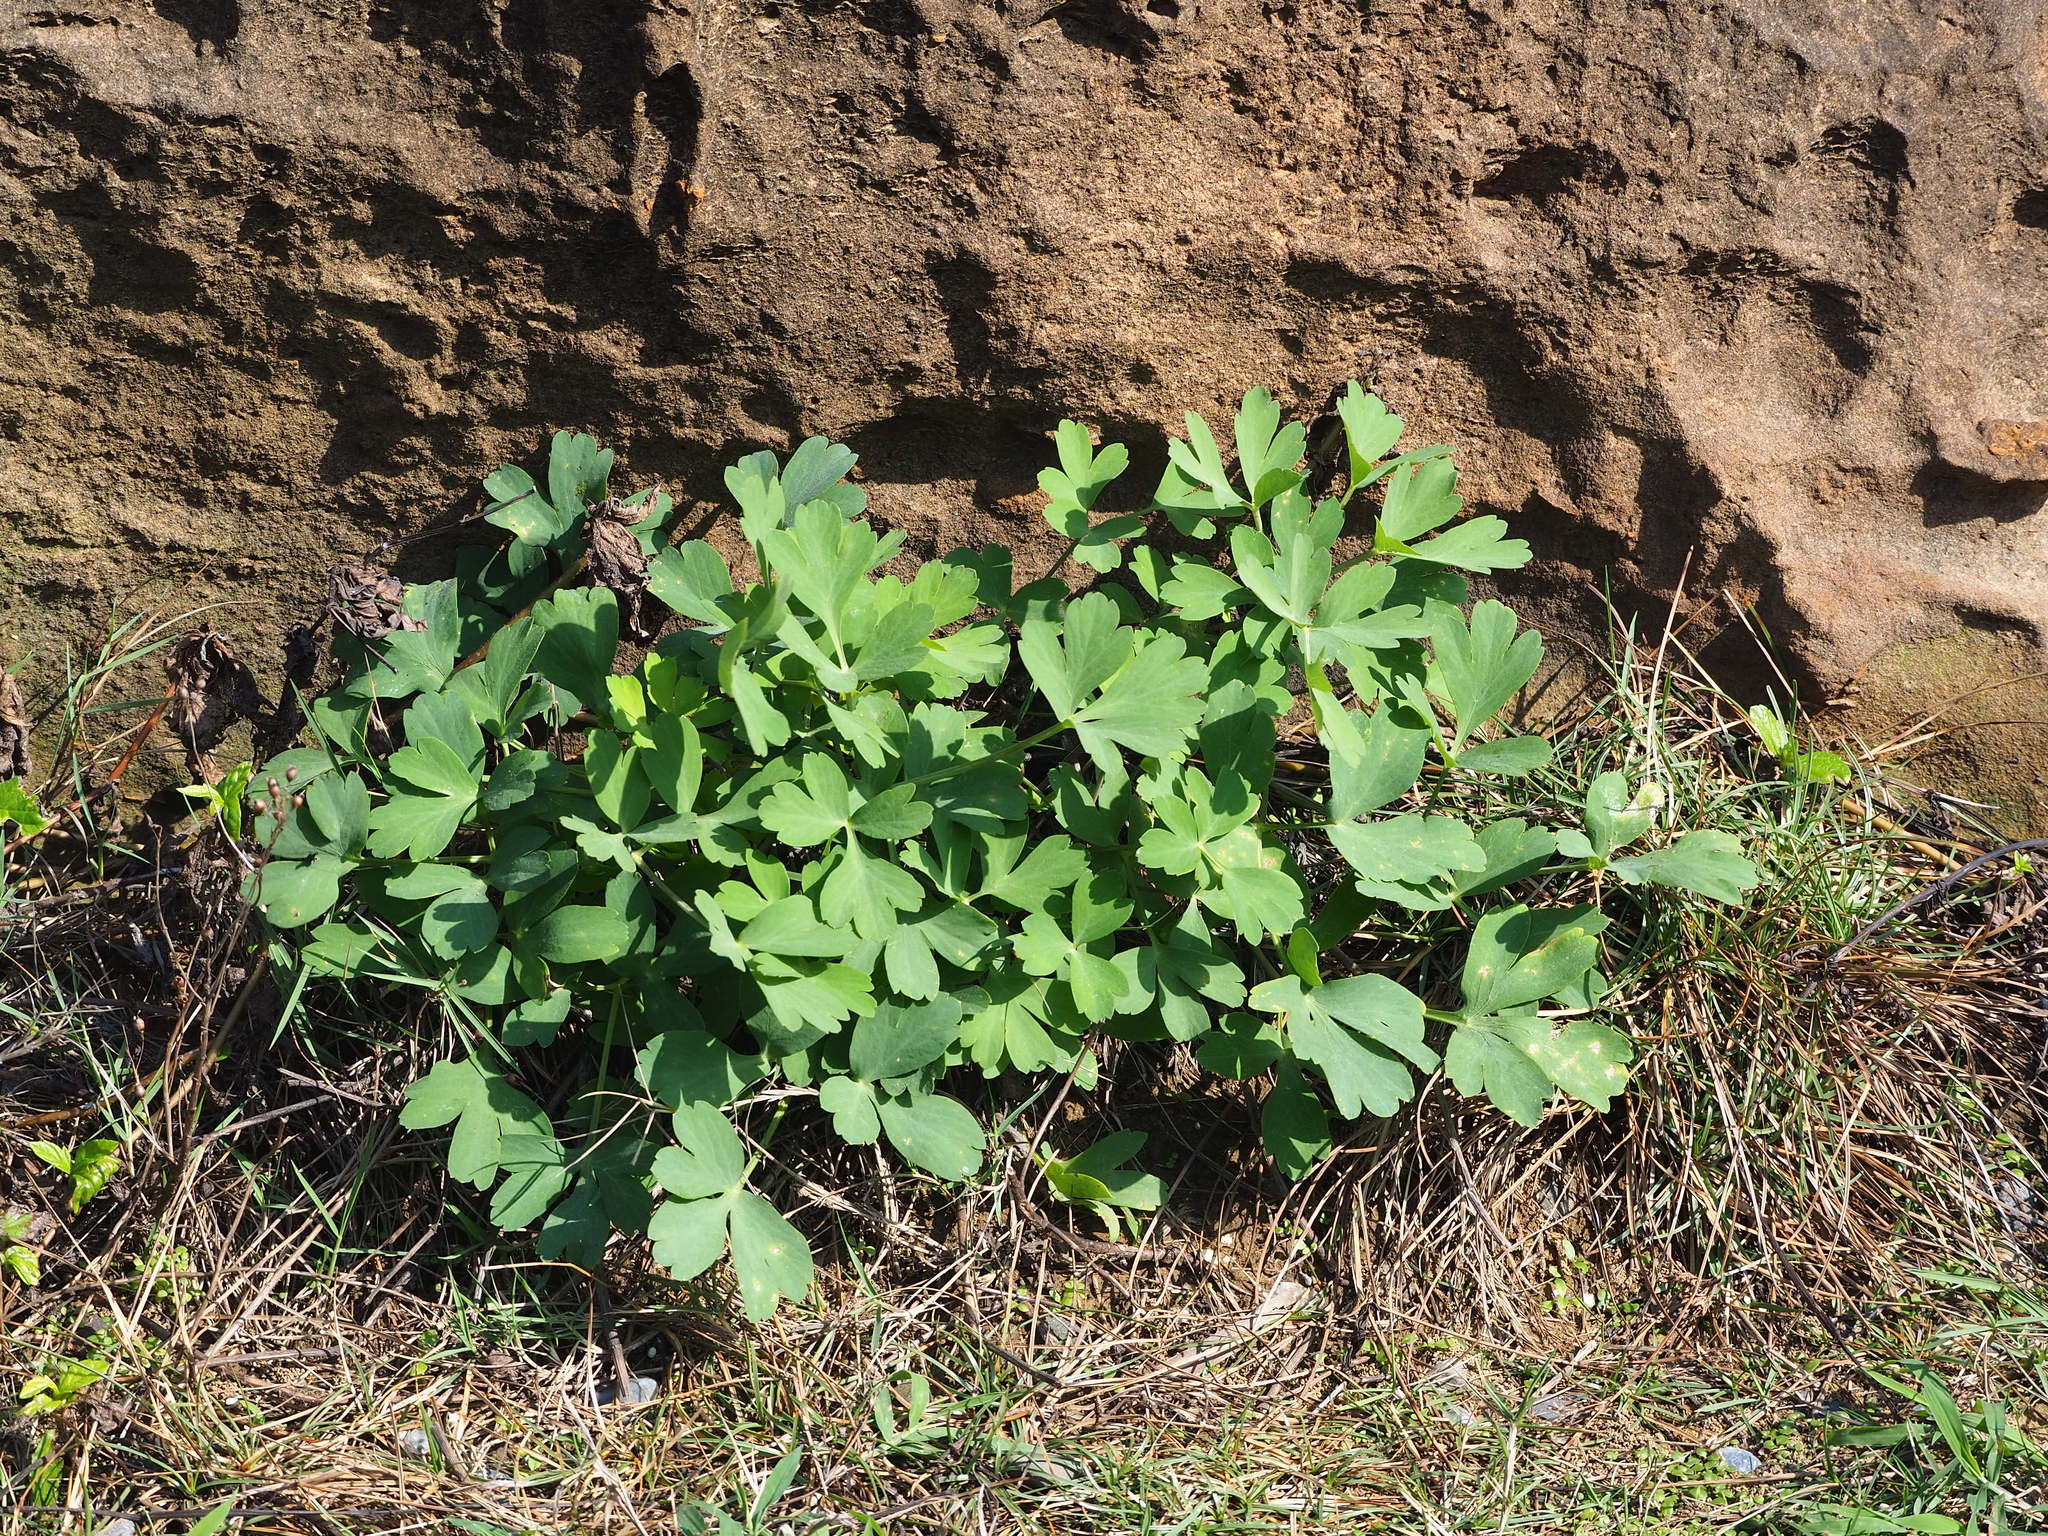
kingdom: Plantae
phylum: Tracheophyta
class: Magnoliopsida
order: Apiales
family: Apiaceae
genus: Peucedanum
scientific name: Peucedanum japonicum
